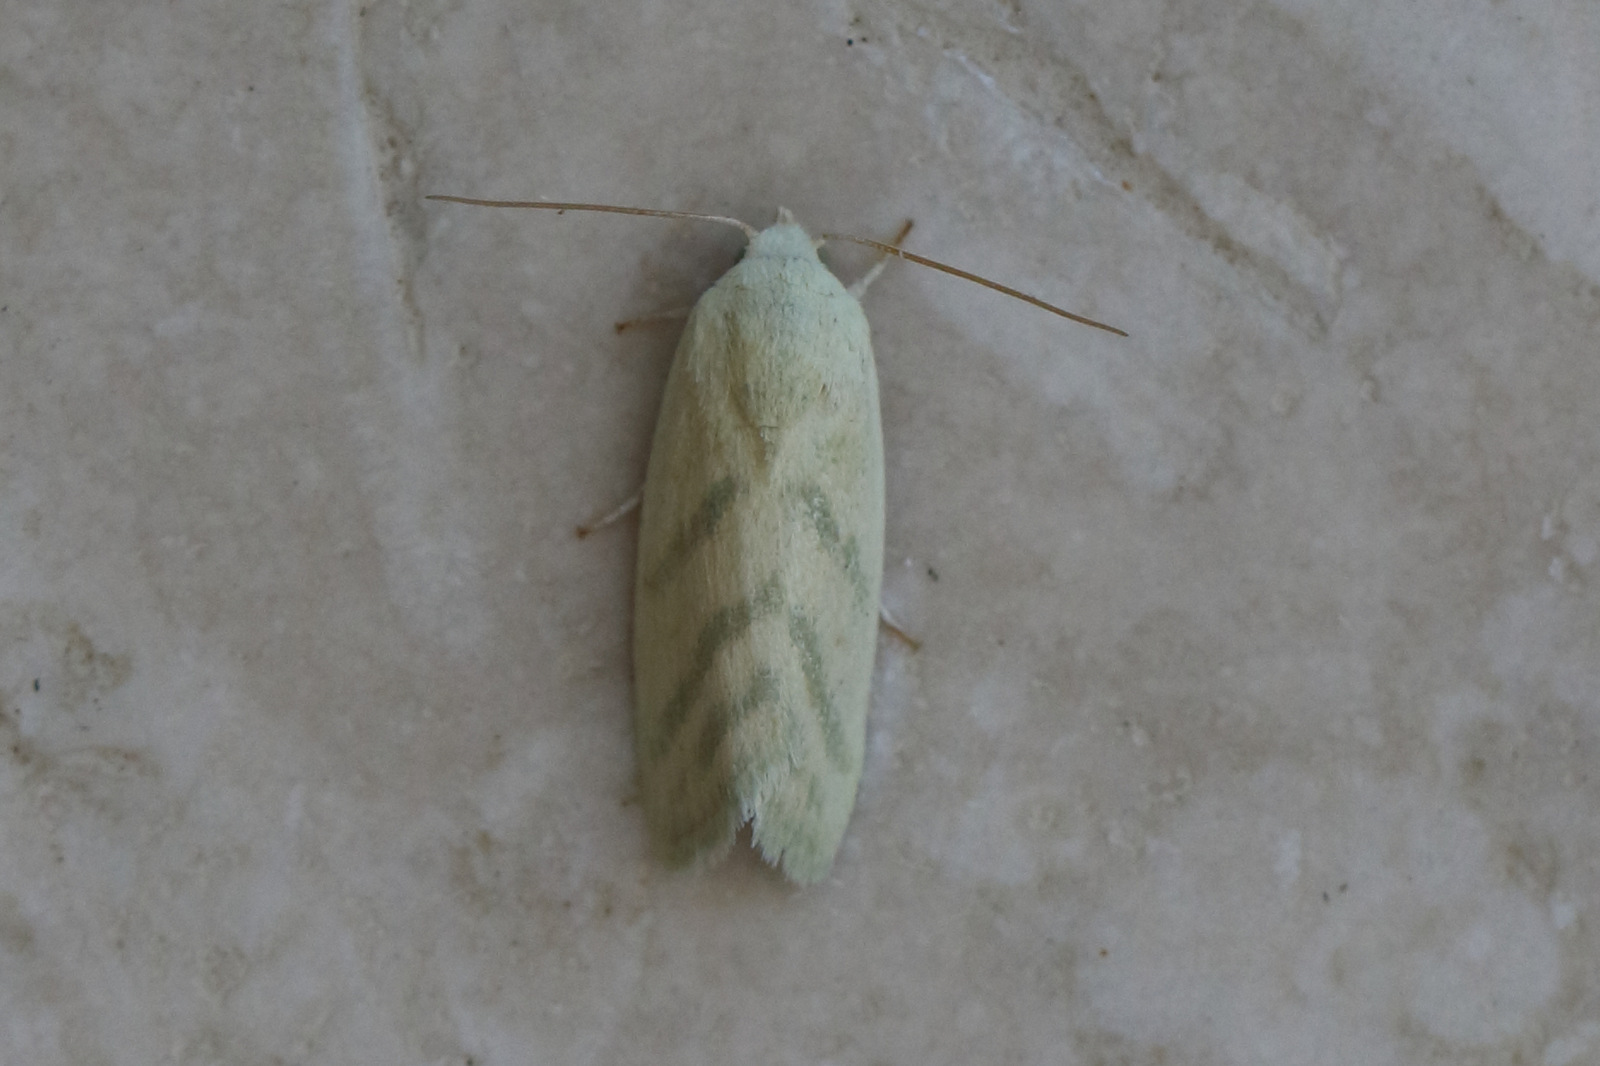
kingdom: Animalia
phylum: Arthropoda
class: Insecta
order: Lepidoptera
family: Nolidae
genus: Earias
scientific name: Earias paralella
